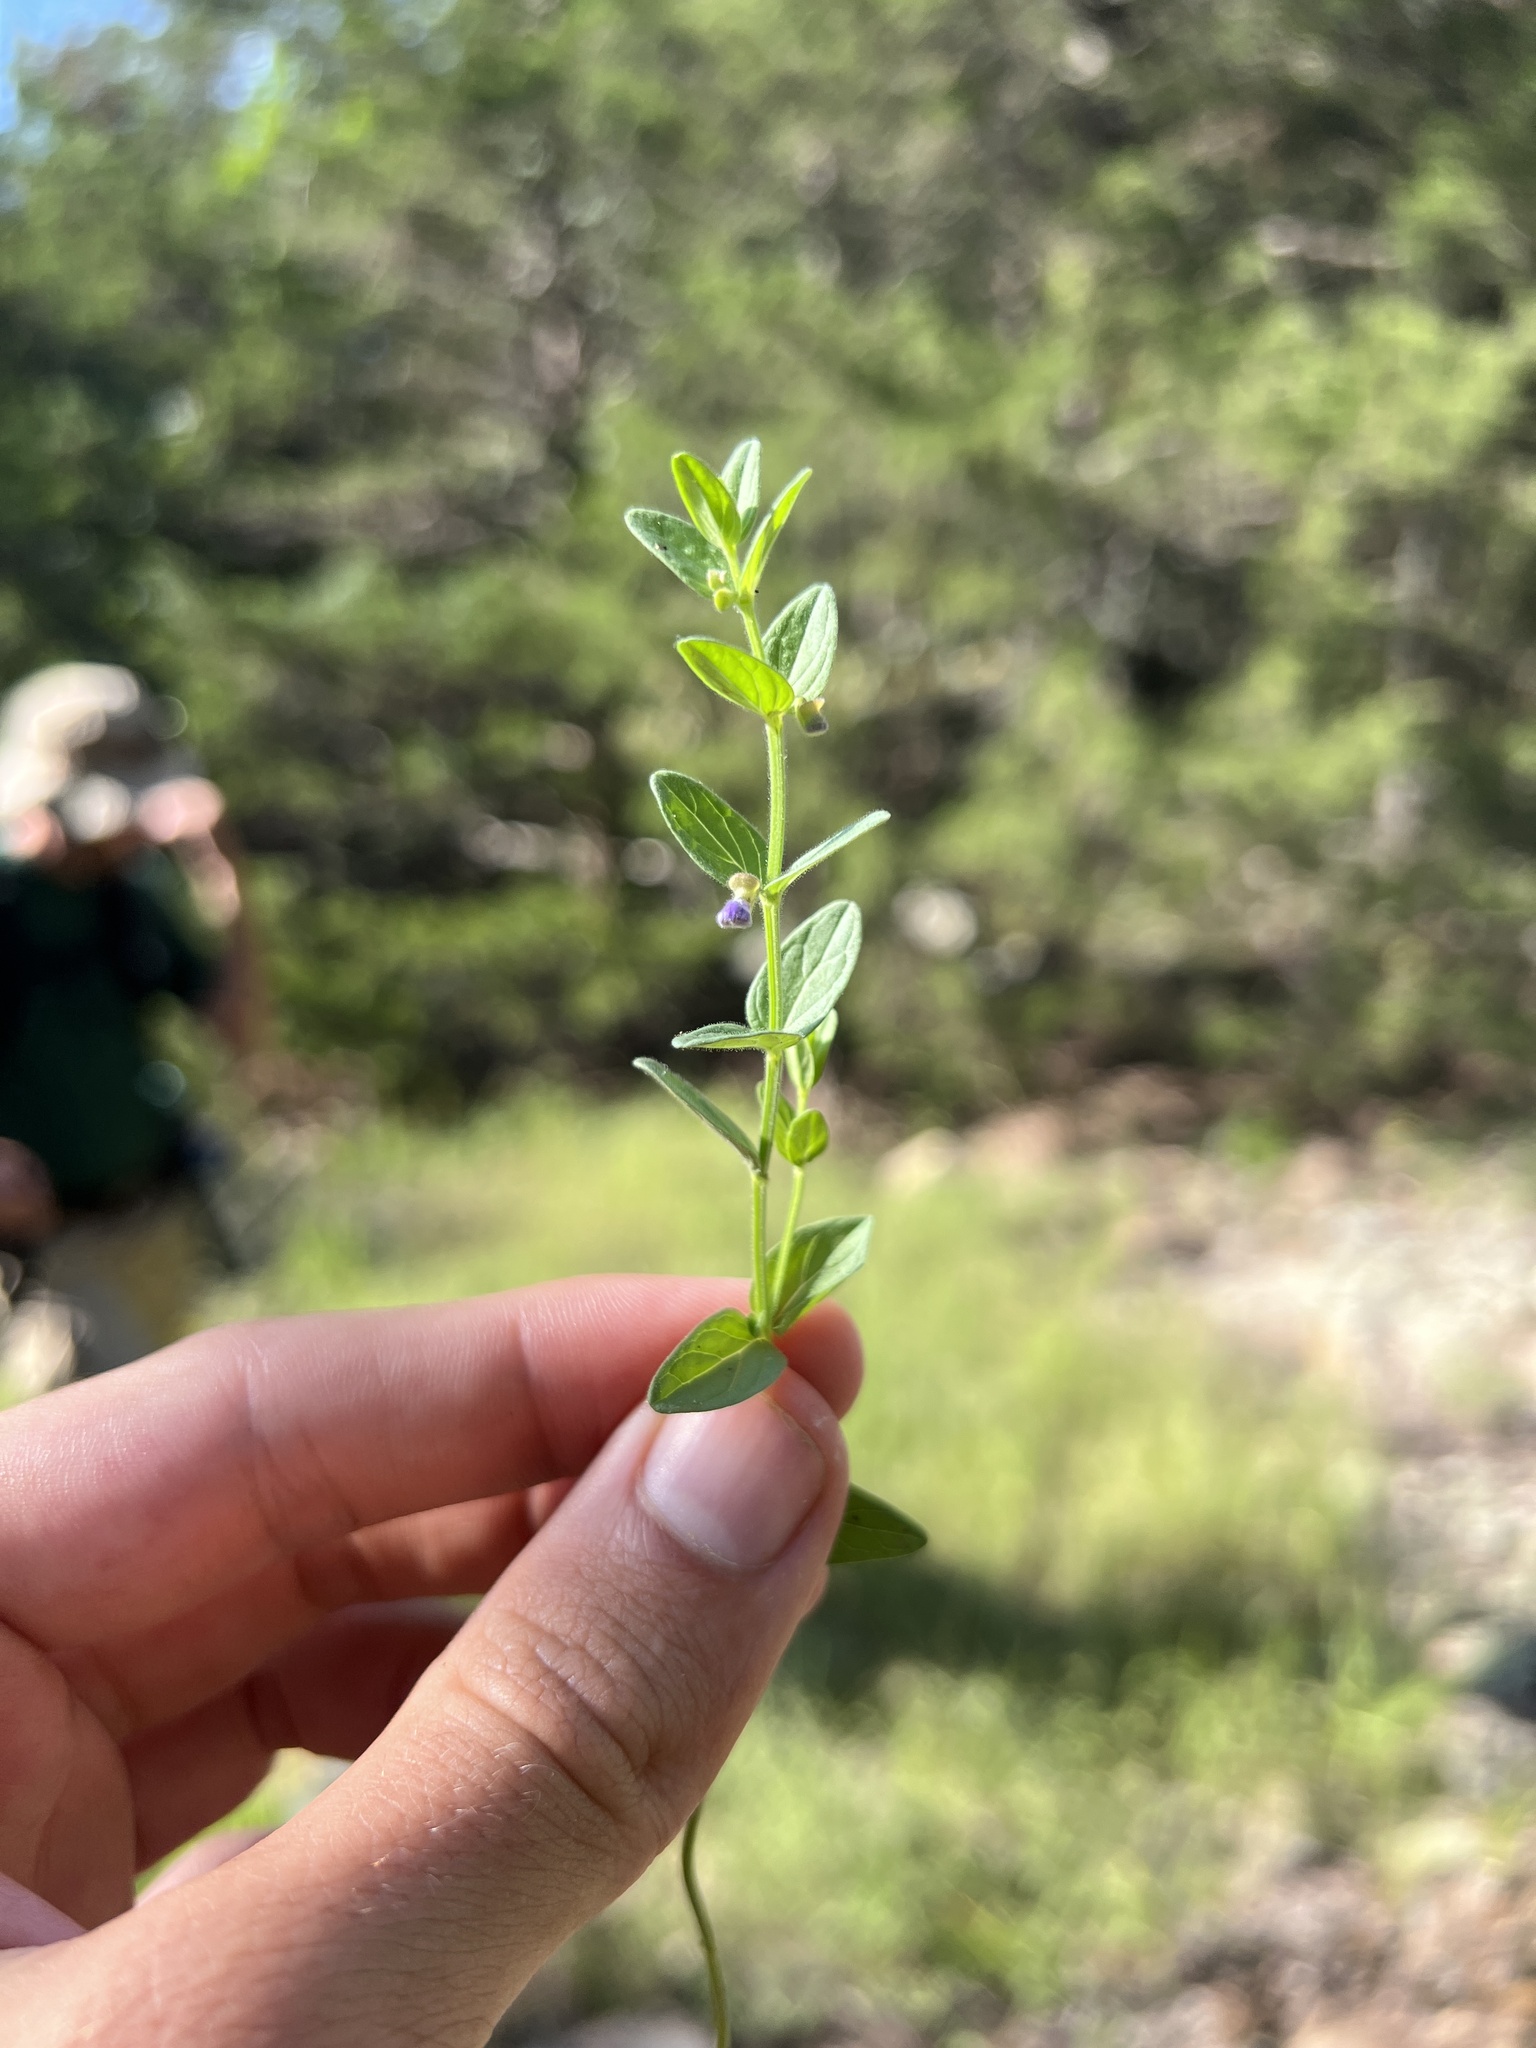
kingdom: Plantae
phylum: Tracheophyta
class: Magnoliopsida
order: Lamiales
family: Lamiaceae
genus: Scutellaria
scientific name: Scutellaria parvula
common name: Little scullcap
